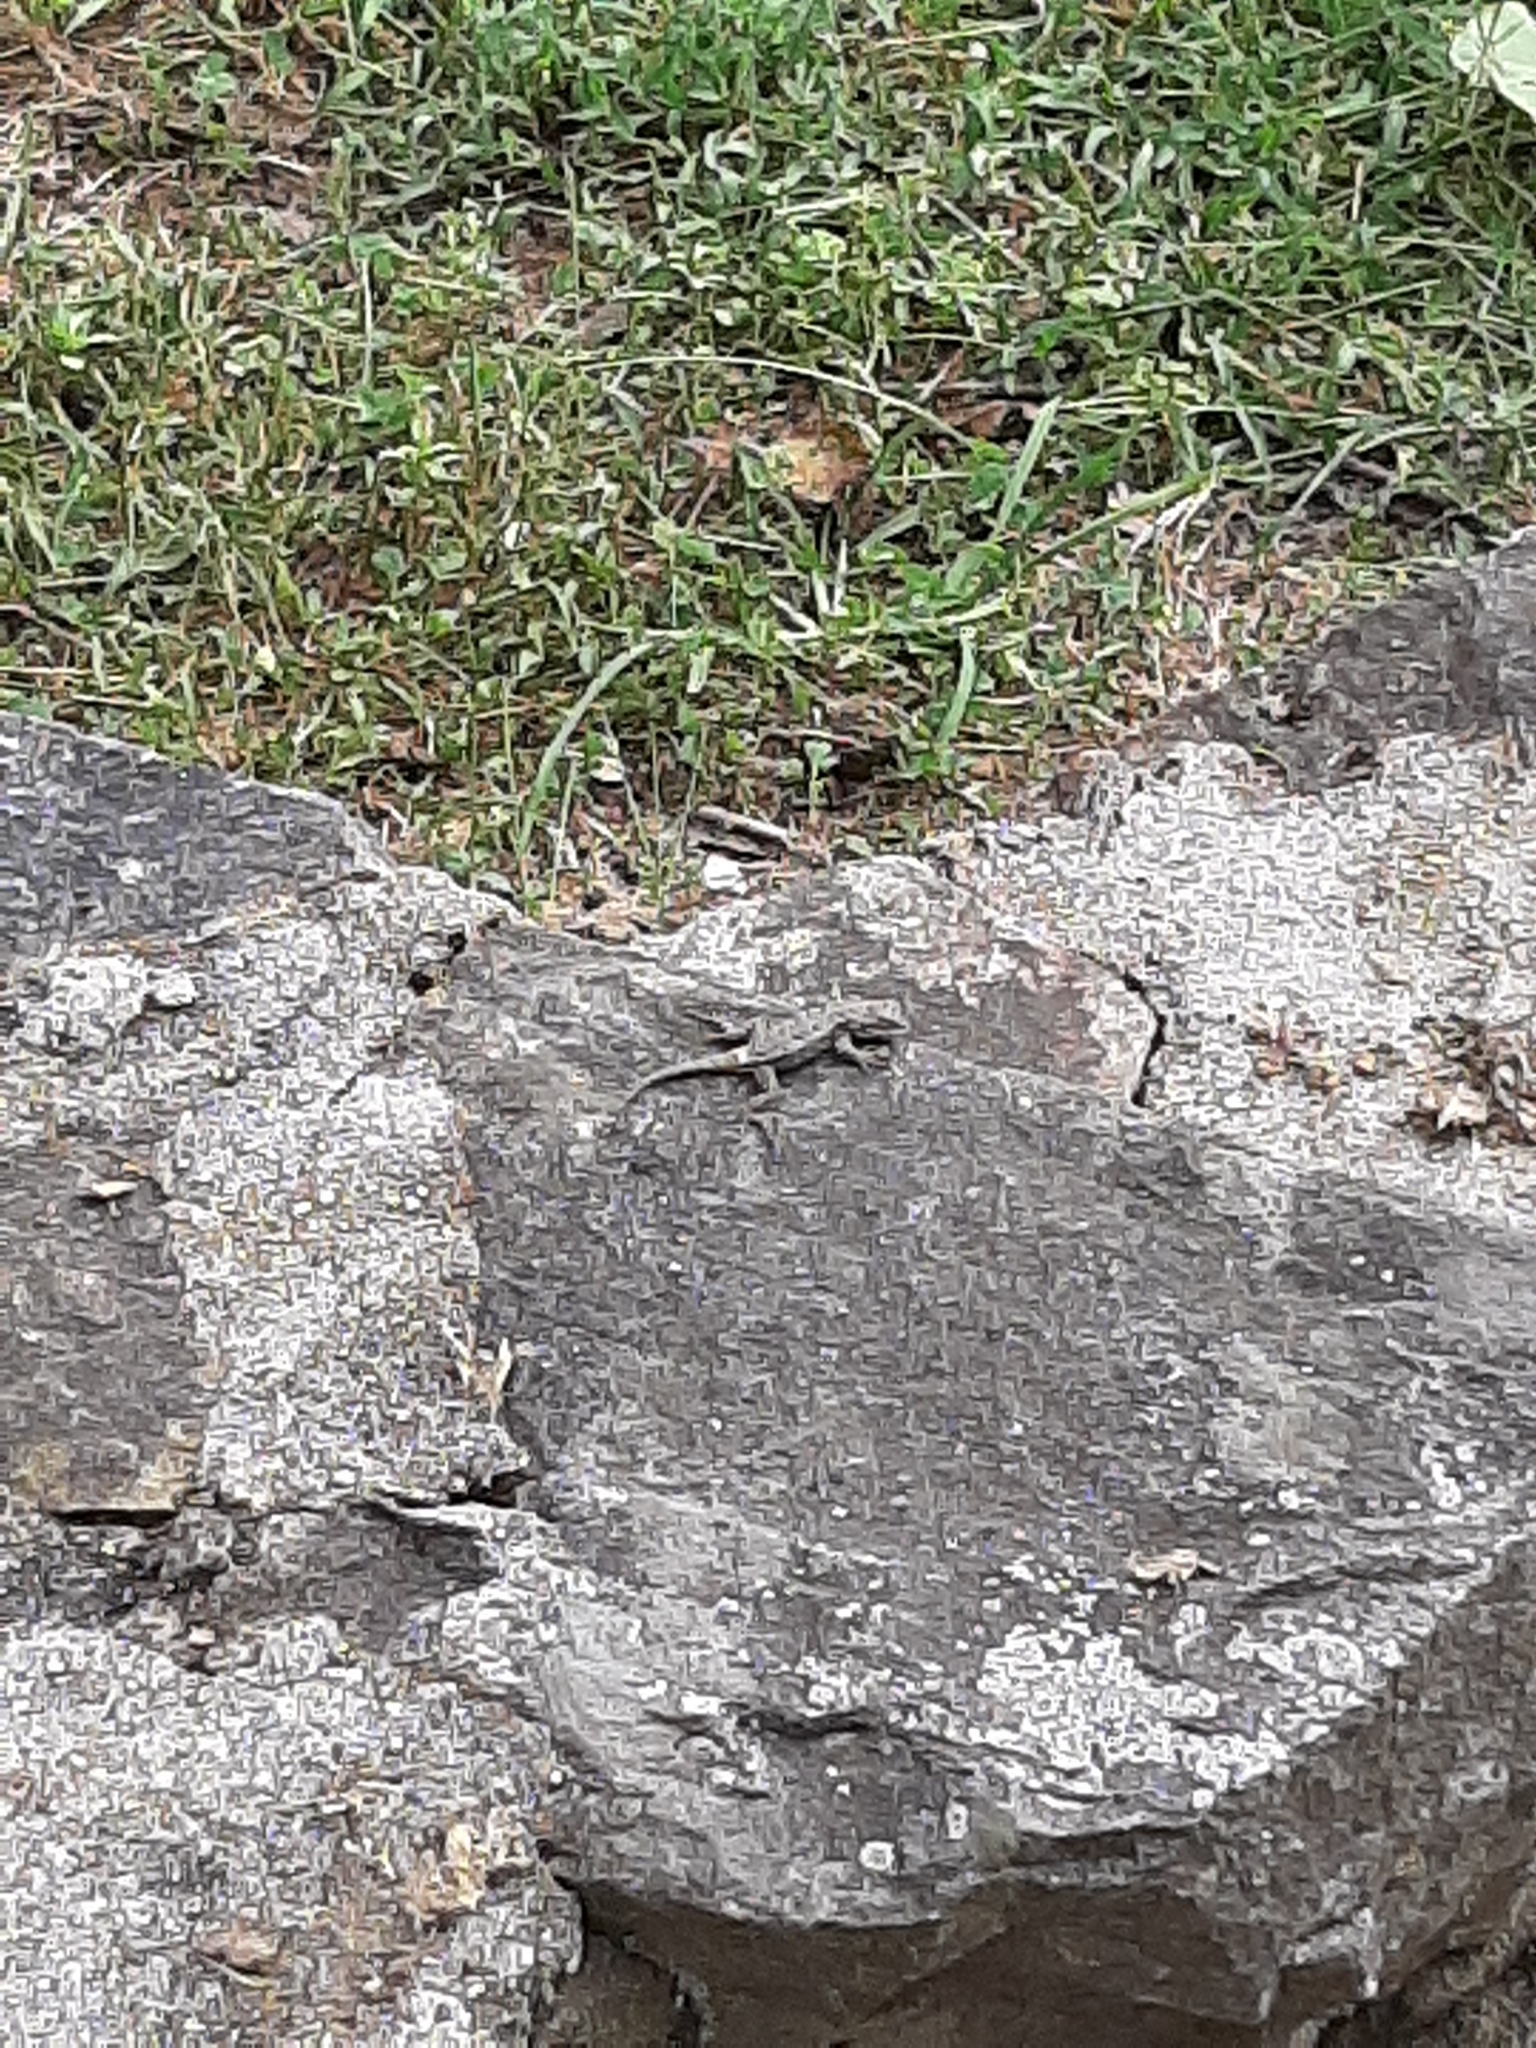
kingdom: Animalia
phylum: Chordata
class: Squamata
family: Phrynosomatidae
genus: Sceloporus
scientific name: Sceloporus undulatus
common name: Eastern fence lizard
